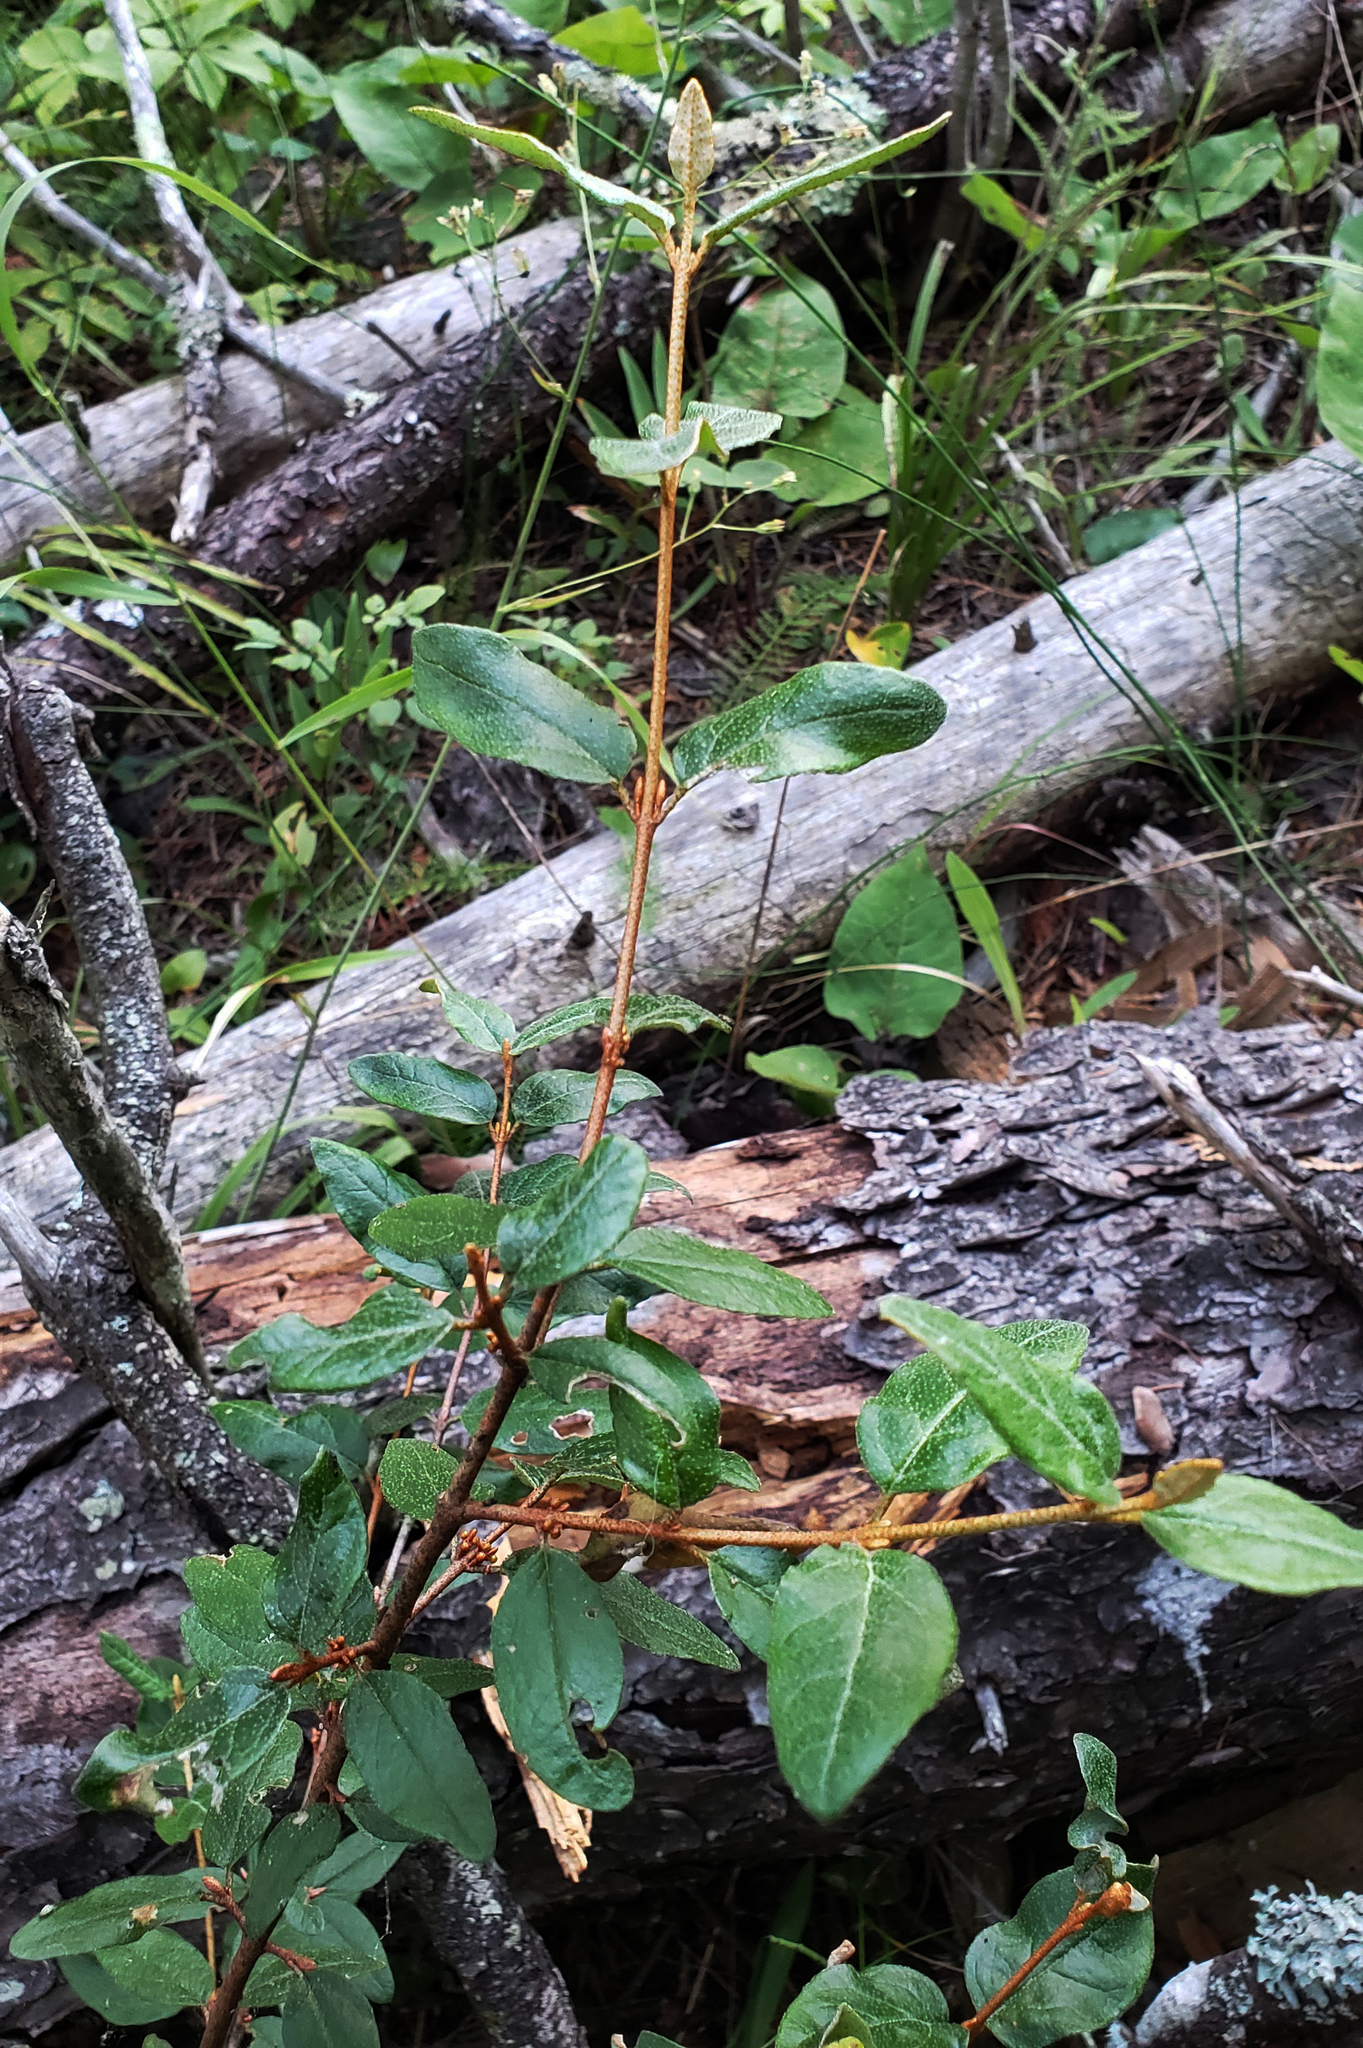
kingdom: Plantae
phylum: Tracheophyta
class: Magnoliopsida
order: Rosales
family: Elaeagnaceae
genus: Shepherdia
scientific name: Shepherdia canadensis
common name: Soapberry
